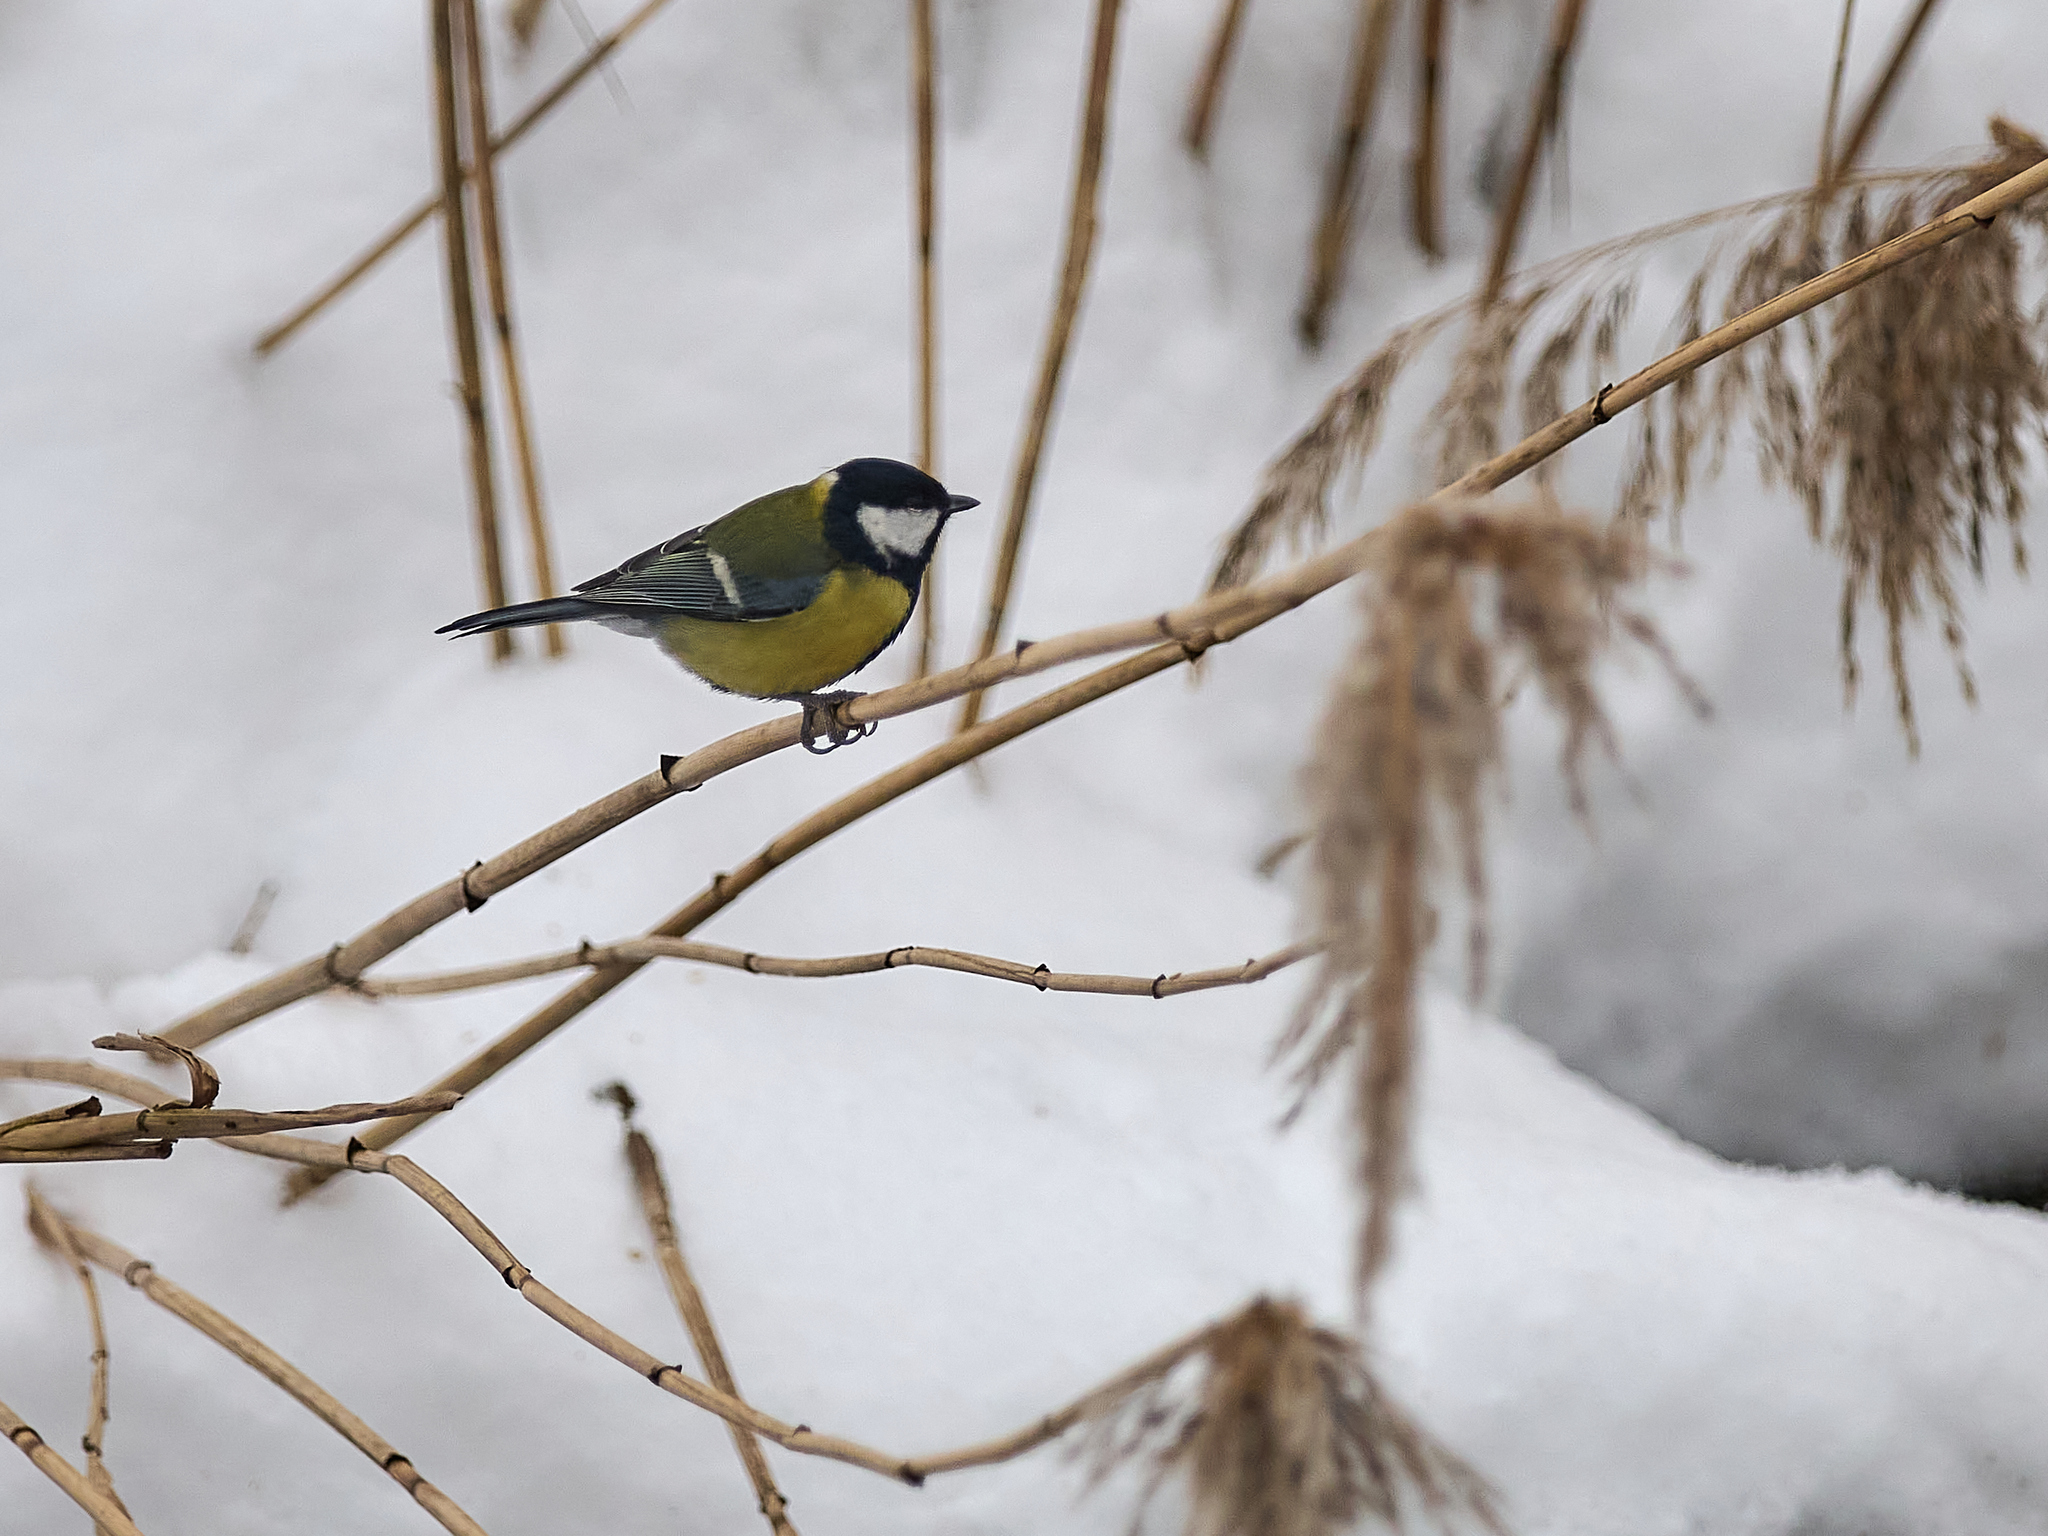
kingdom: Animalia
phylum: Chordata
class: Aves
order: Passeriformes
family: Paridae
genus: Parus
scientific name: Parus major
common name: Great tit
